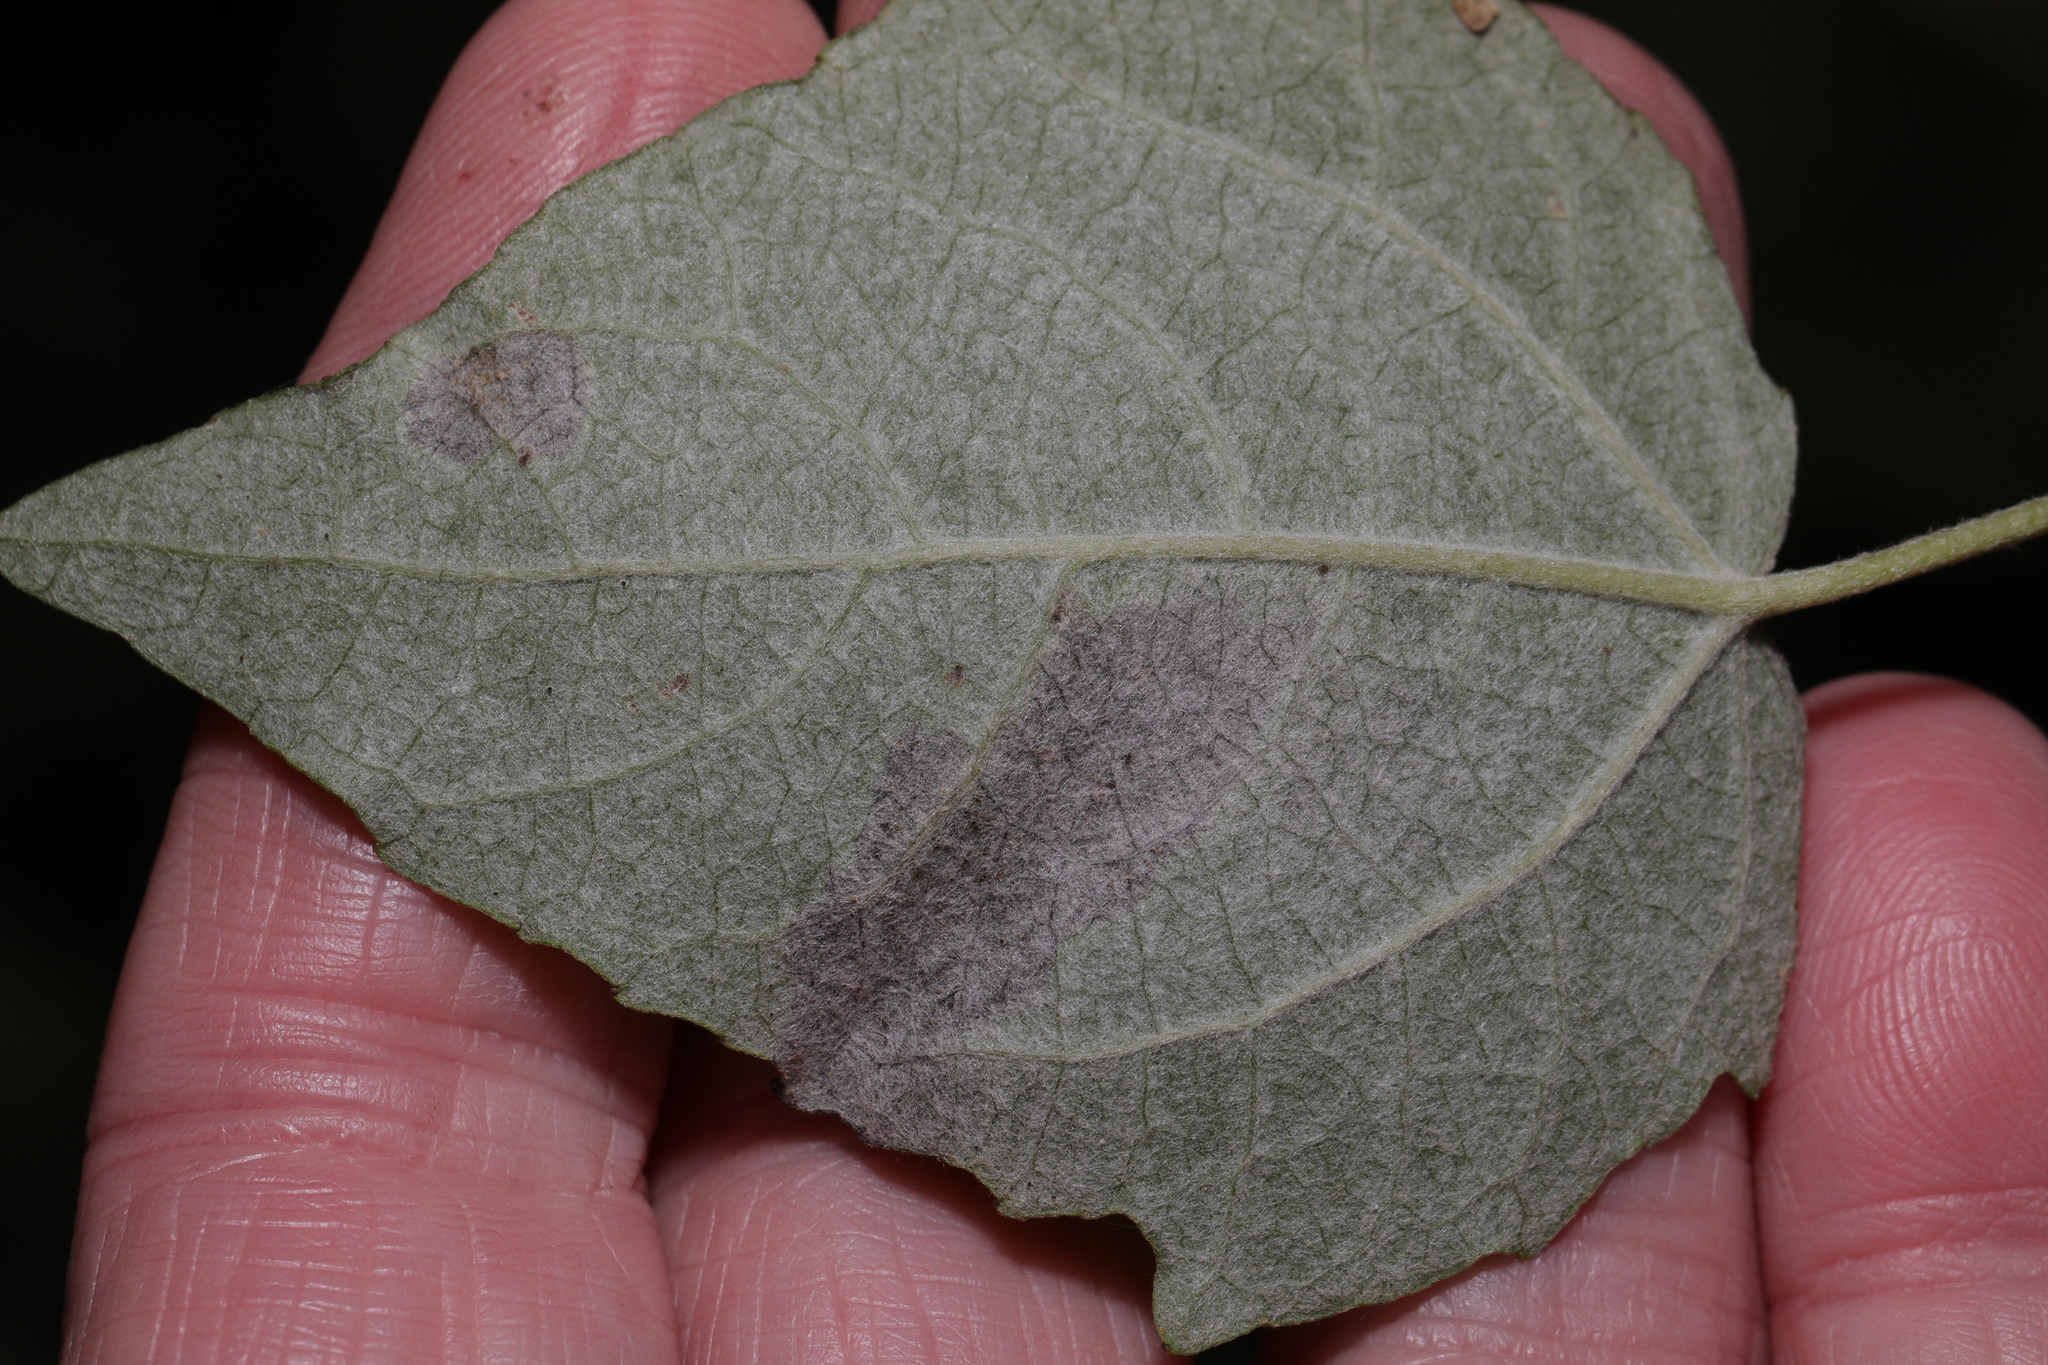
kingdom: Animalia
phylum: Arthropoda
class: Insecta
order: Diptera
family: Agromyzidae
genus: Agromyza
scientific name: Agromyza albitarsis
